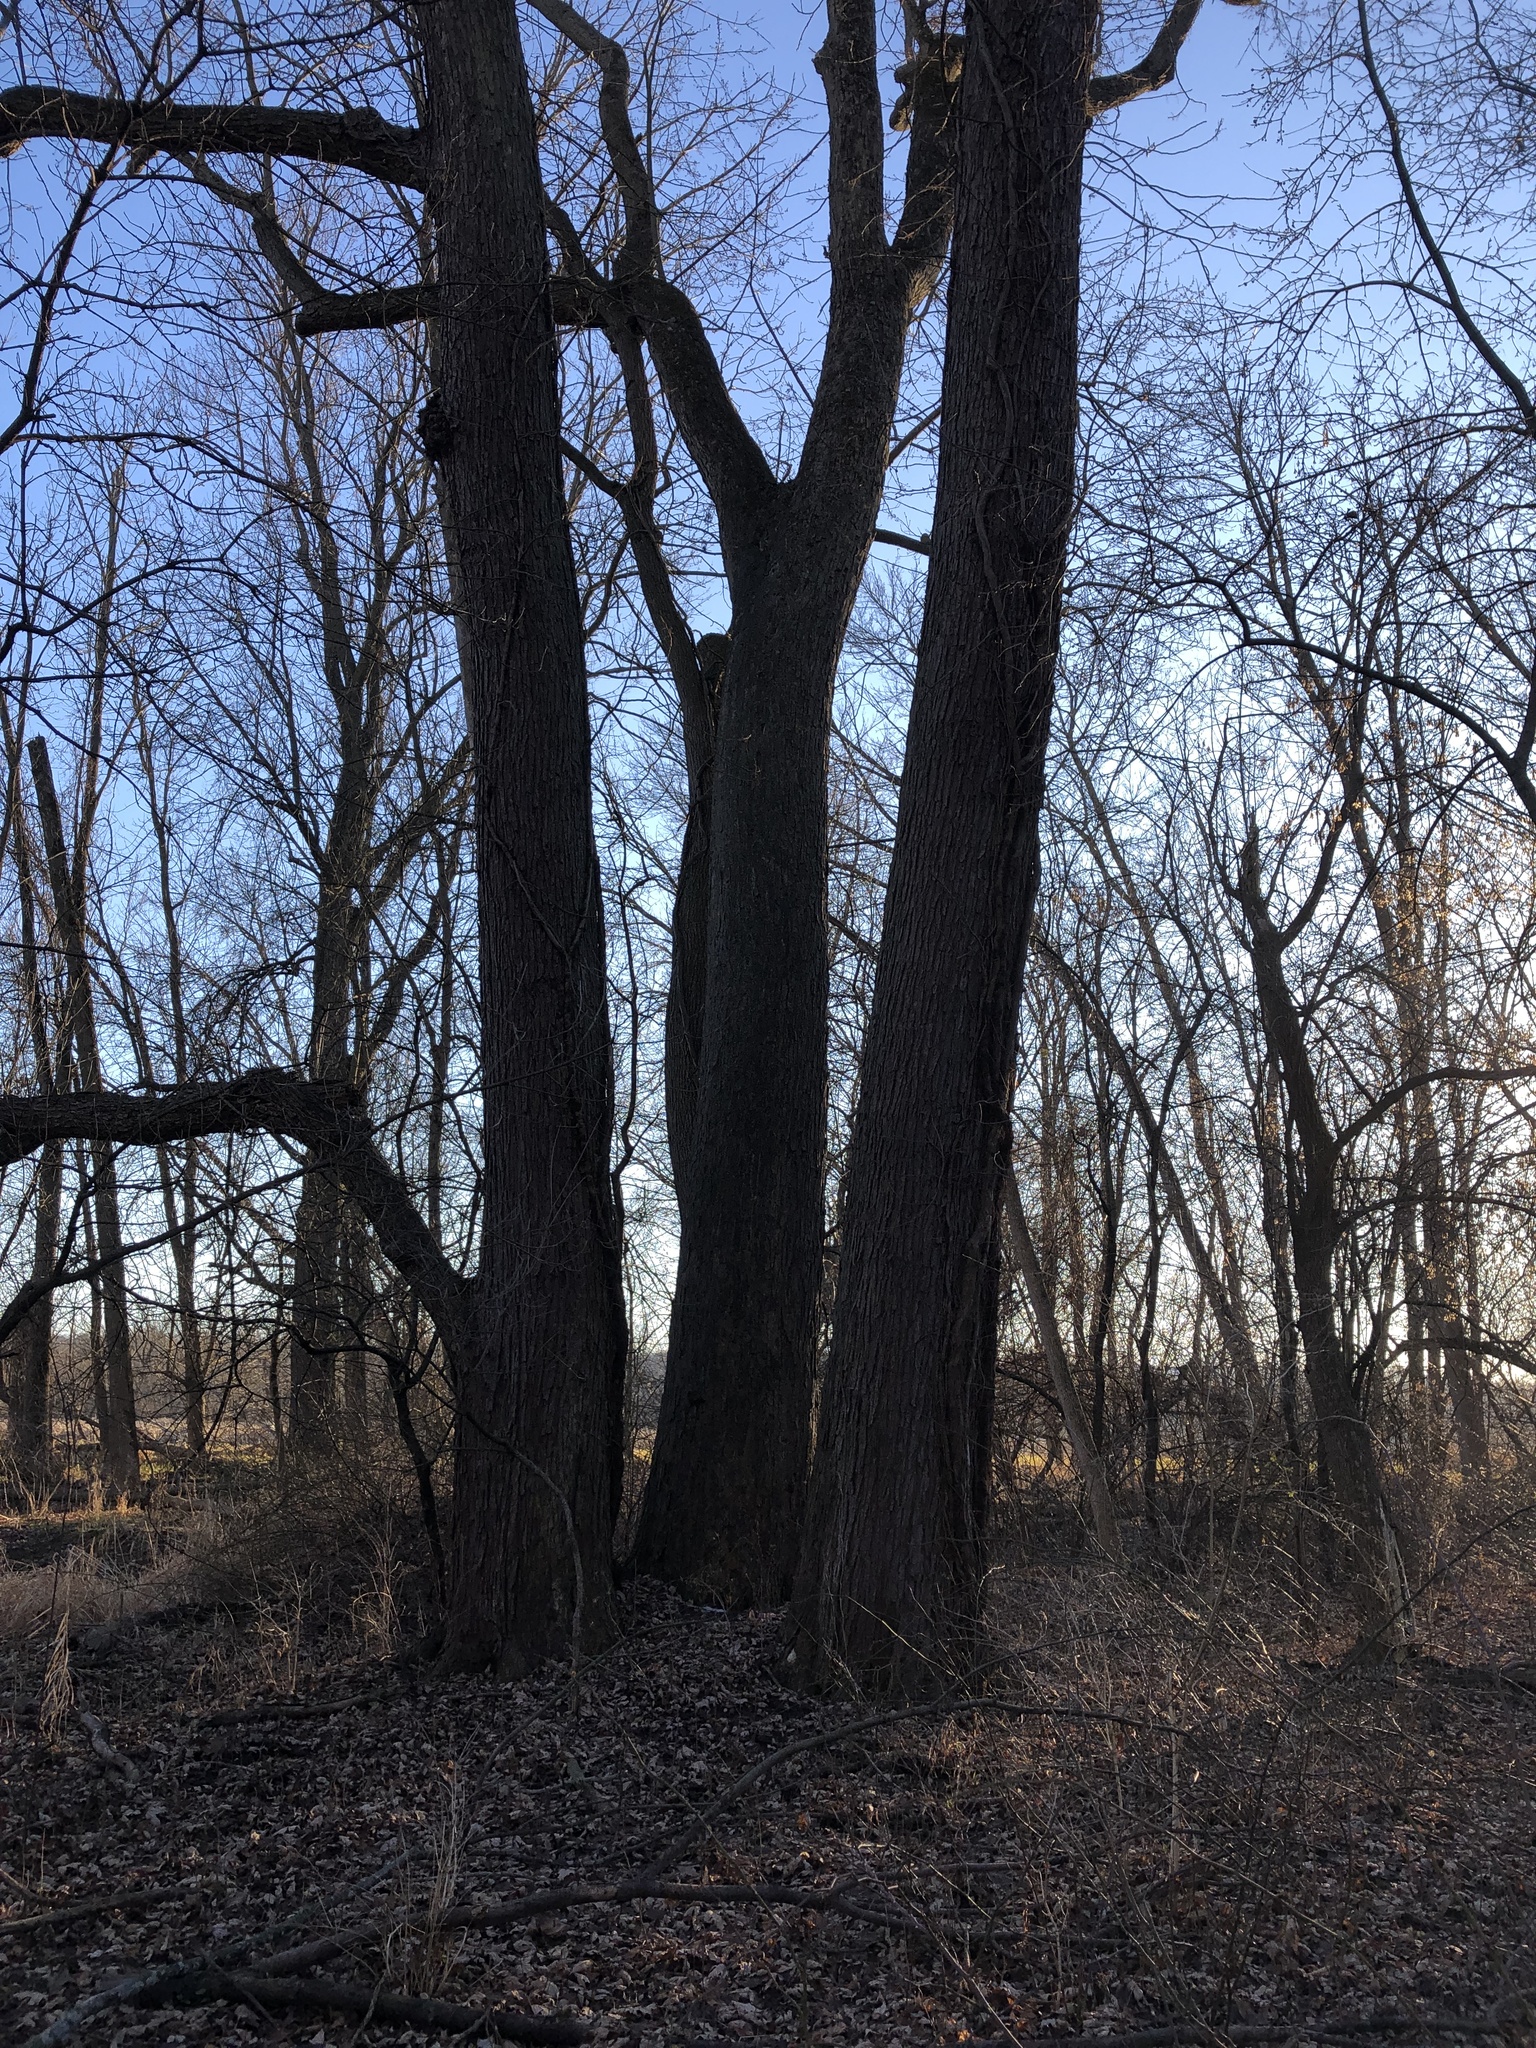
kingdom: Plantae
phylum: Tracheophyta
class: Magnoliopsida
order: Sapindales
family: Sapindaceae
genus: Acer
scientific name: Acer saccharinum
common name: Silver maple
